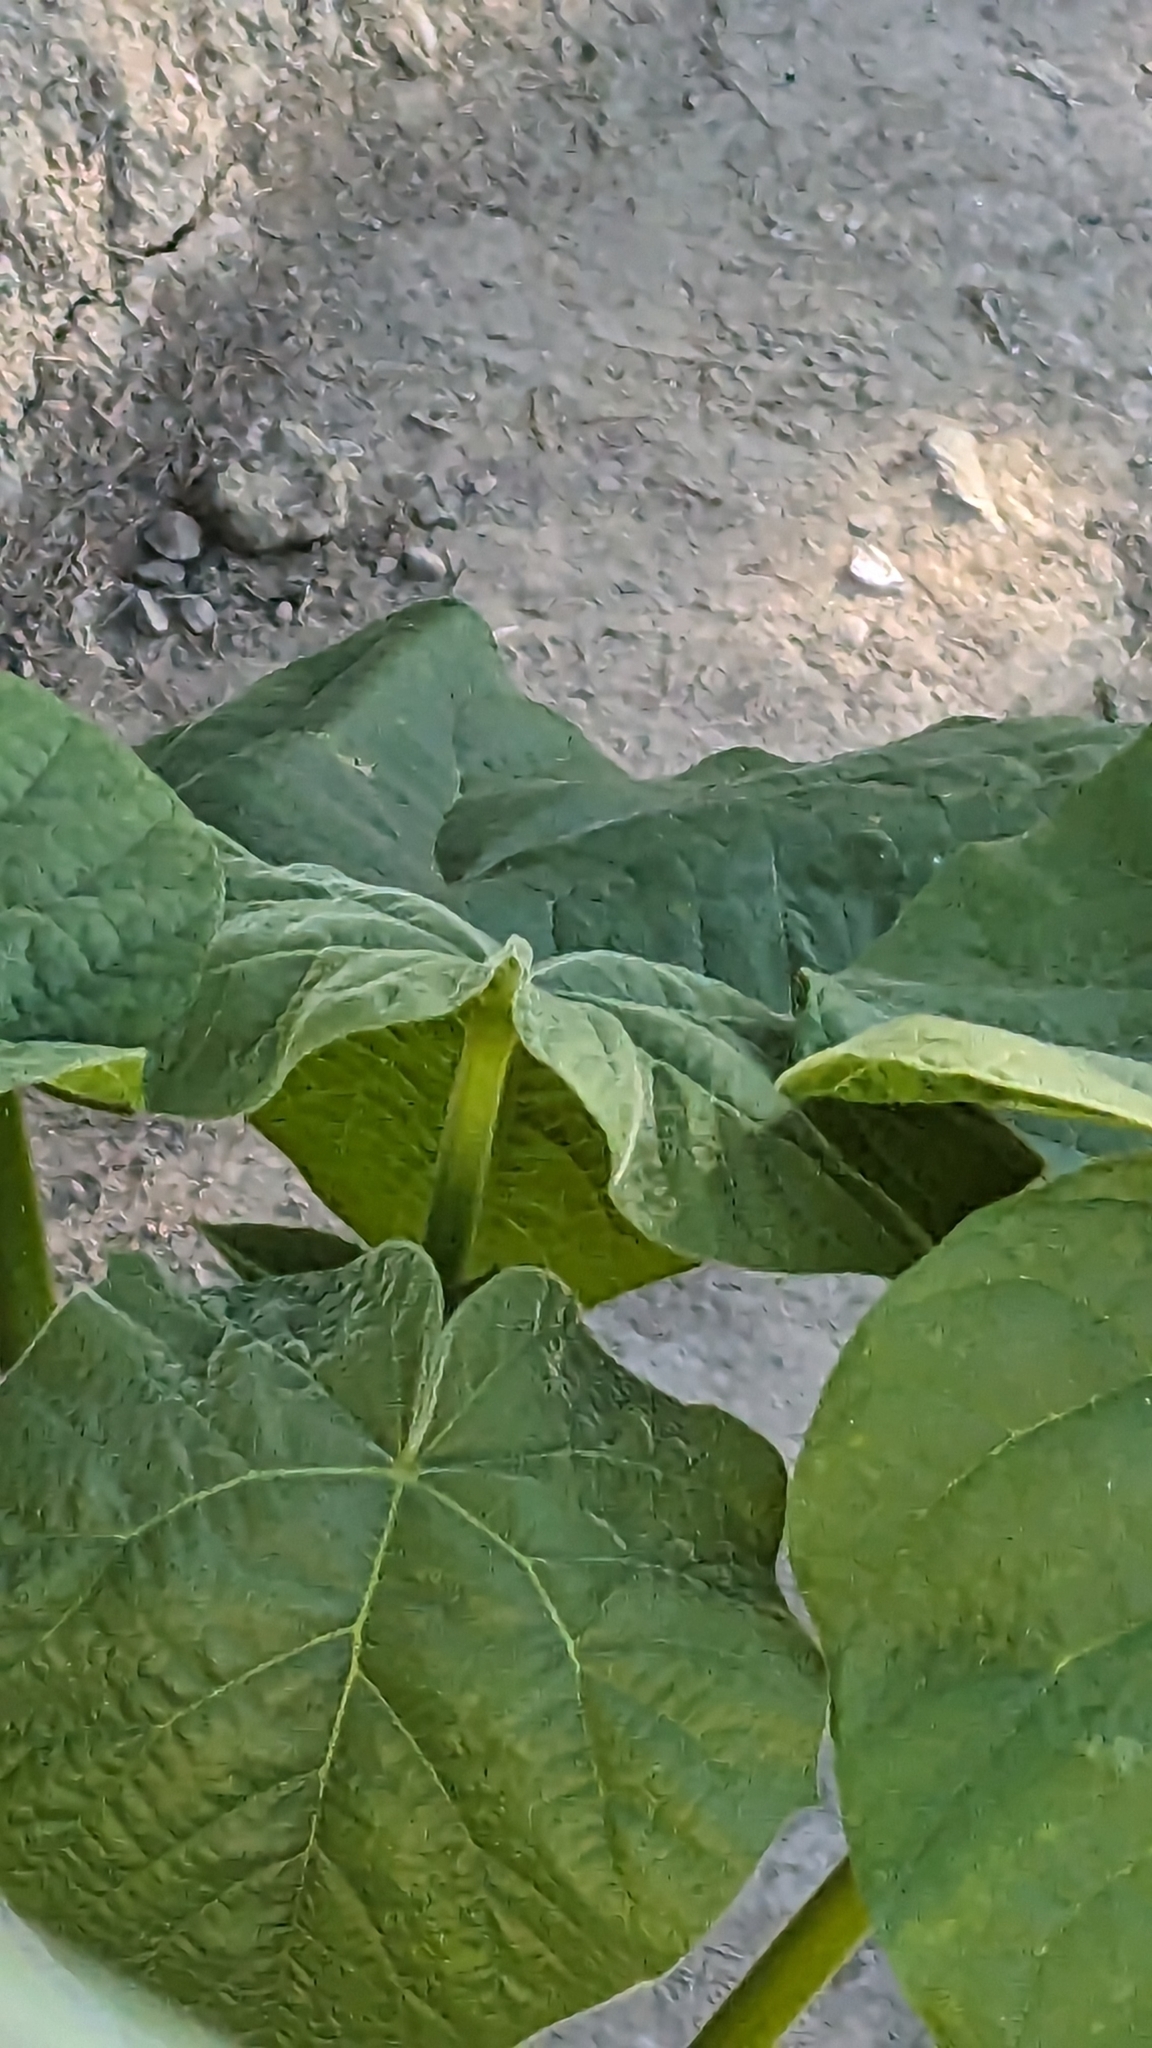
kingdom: Plantae
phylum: Tracheophyta
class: Magnoliopsida
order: Lamiales
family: Paulowniaceae
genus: Paulownia
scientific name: Paulownia tomentosa
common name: Foxglove-tree
